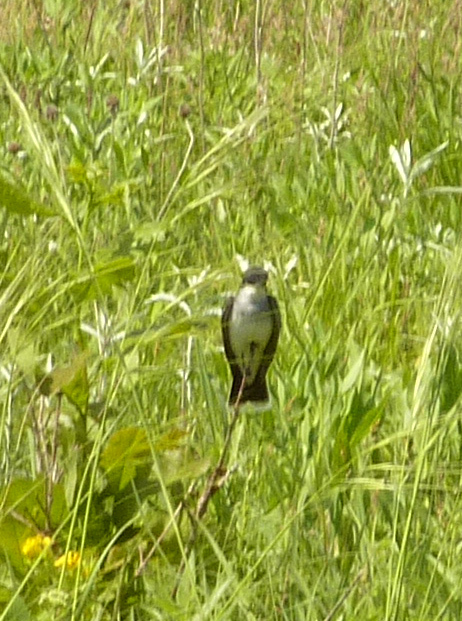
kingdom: Animalia
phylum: Chordata
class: Aves
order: Passeriformes
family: Tyrannidae
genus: Tyrannus
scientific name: Tyrannus tyrannus
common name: Eastern kingbird
